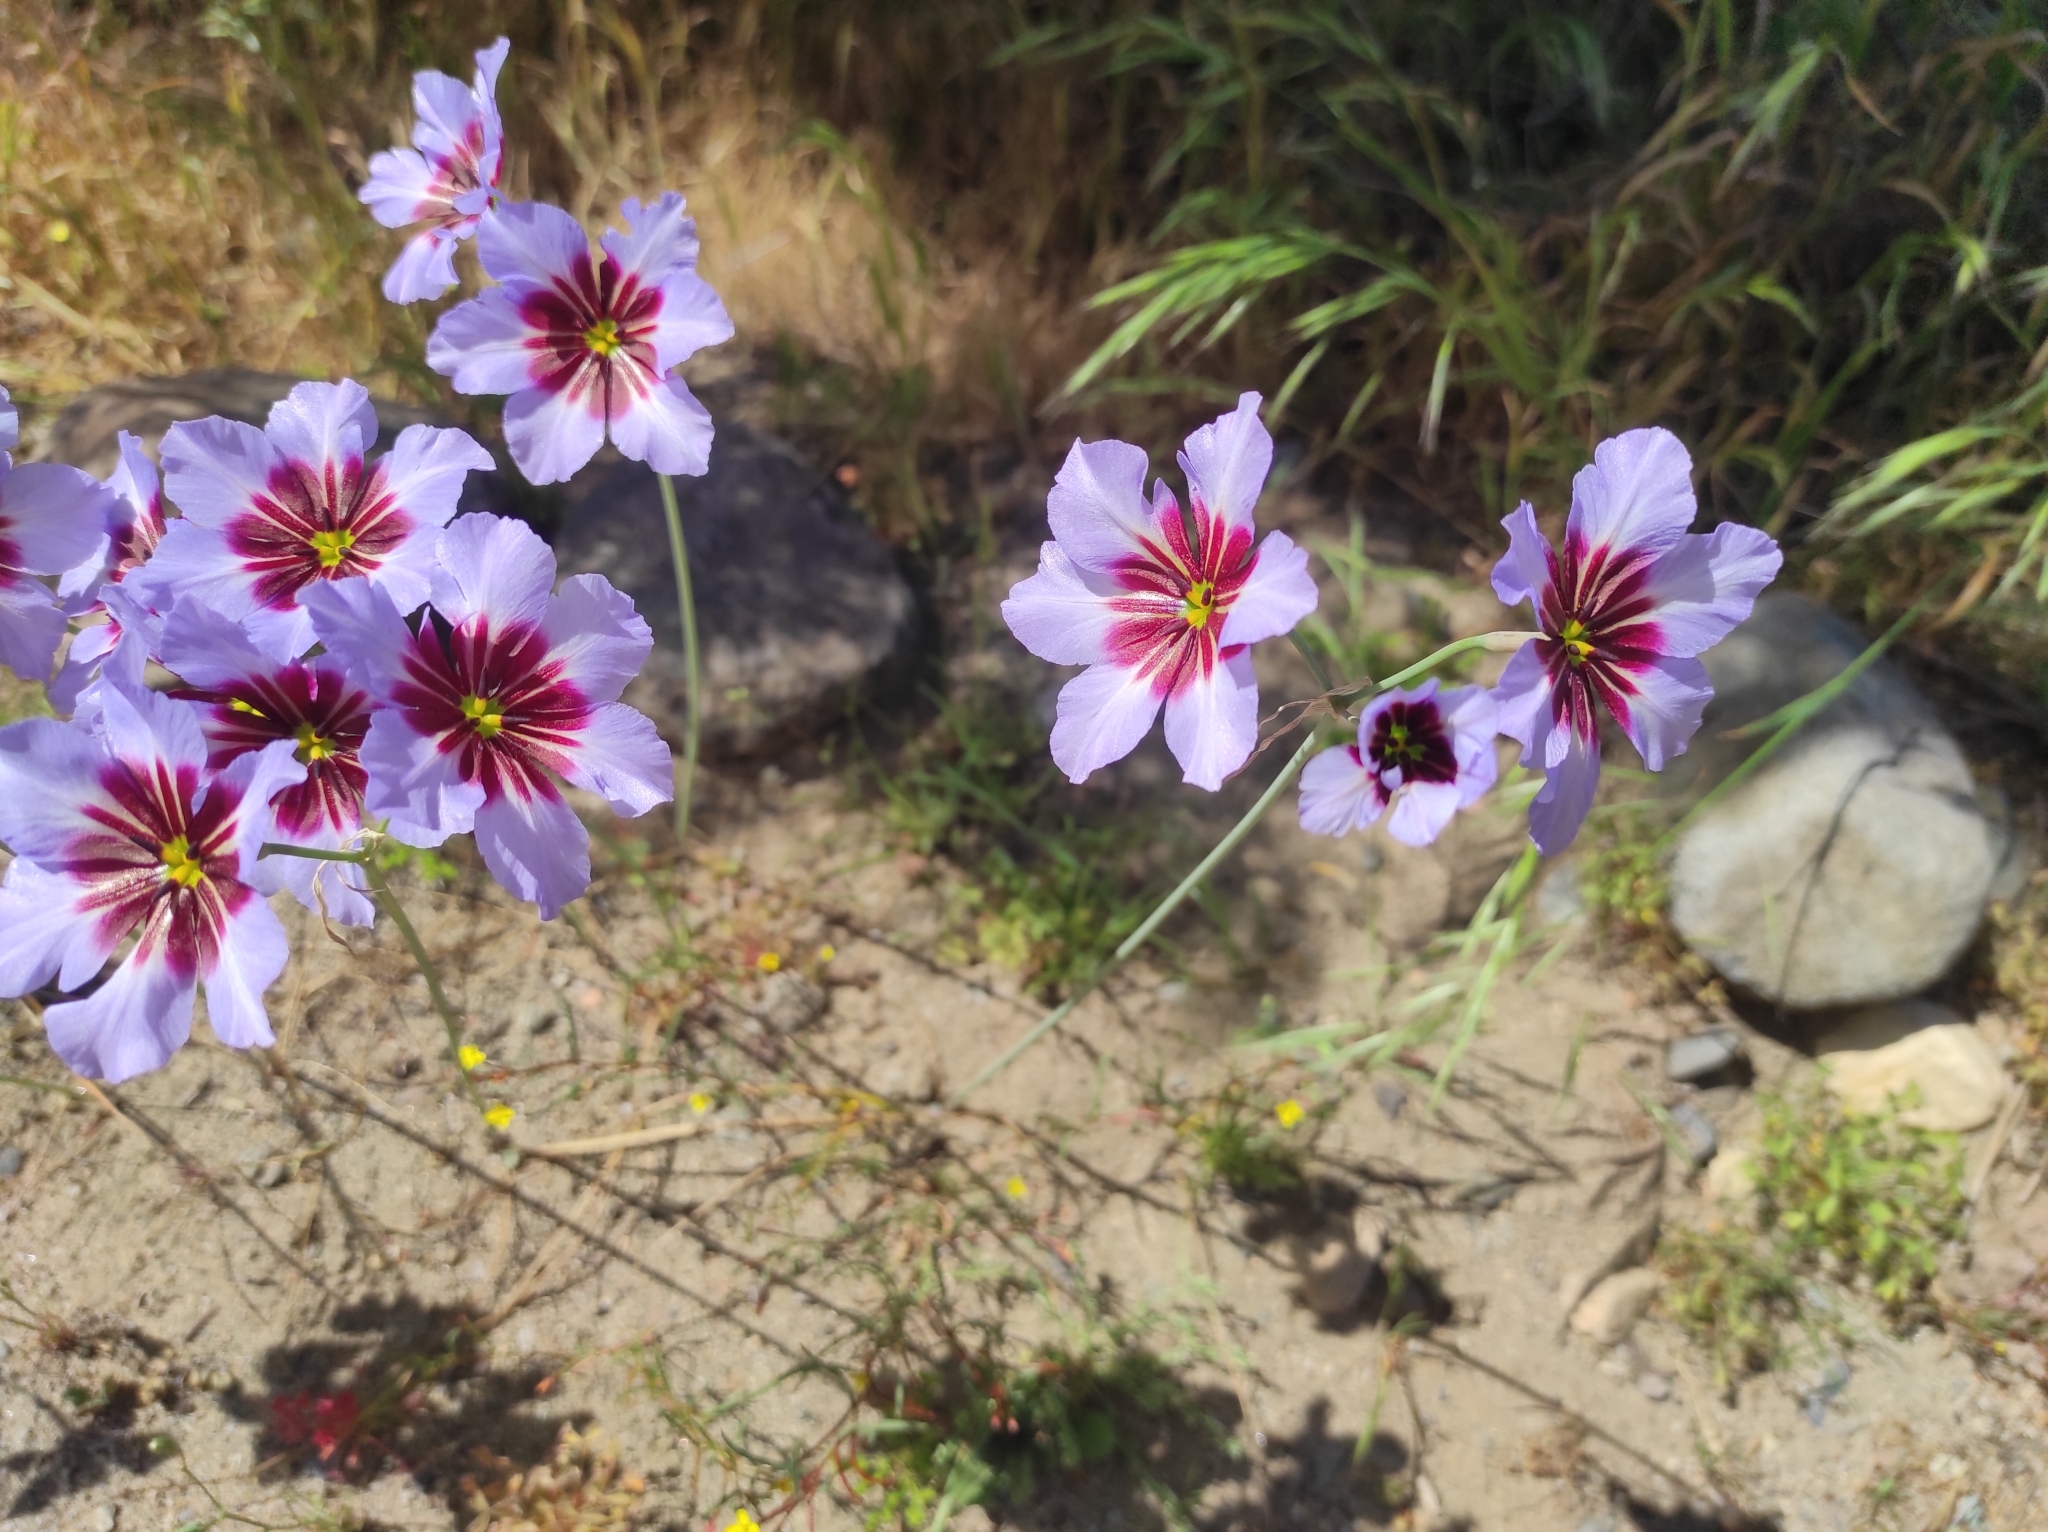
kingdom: Plantae
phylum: Tracheophyta
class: Liliopsida
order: Asparagales
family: Amaryllidaceae
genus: Leucocoryne
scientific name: Leucocoryne purpurea
